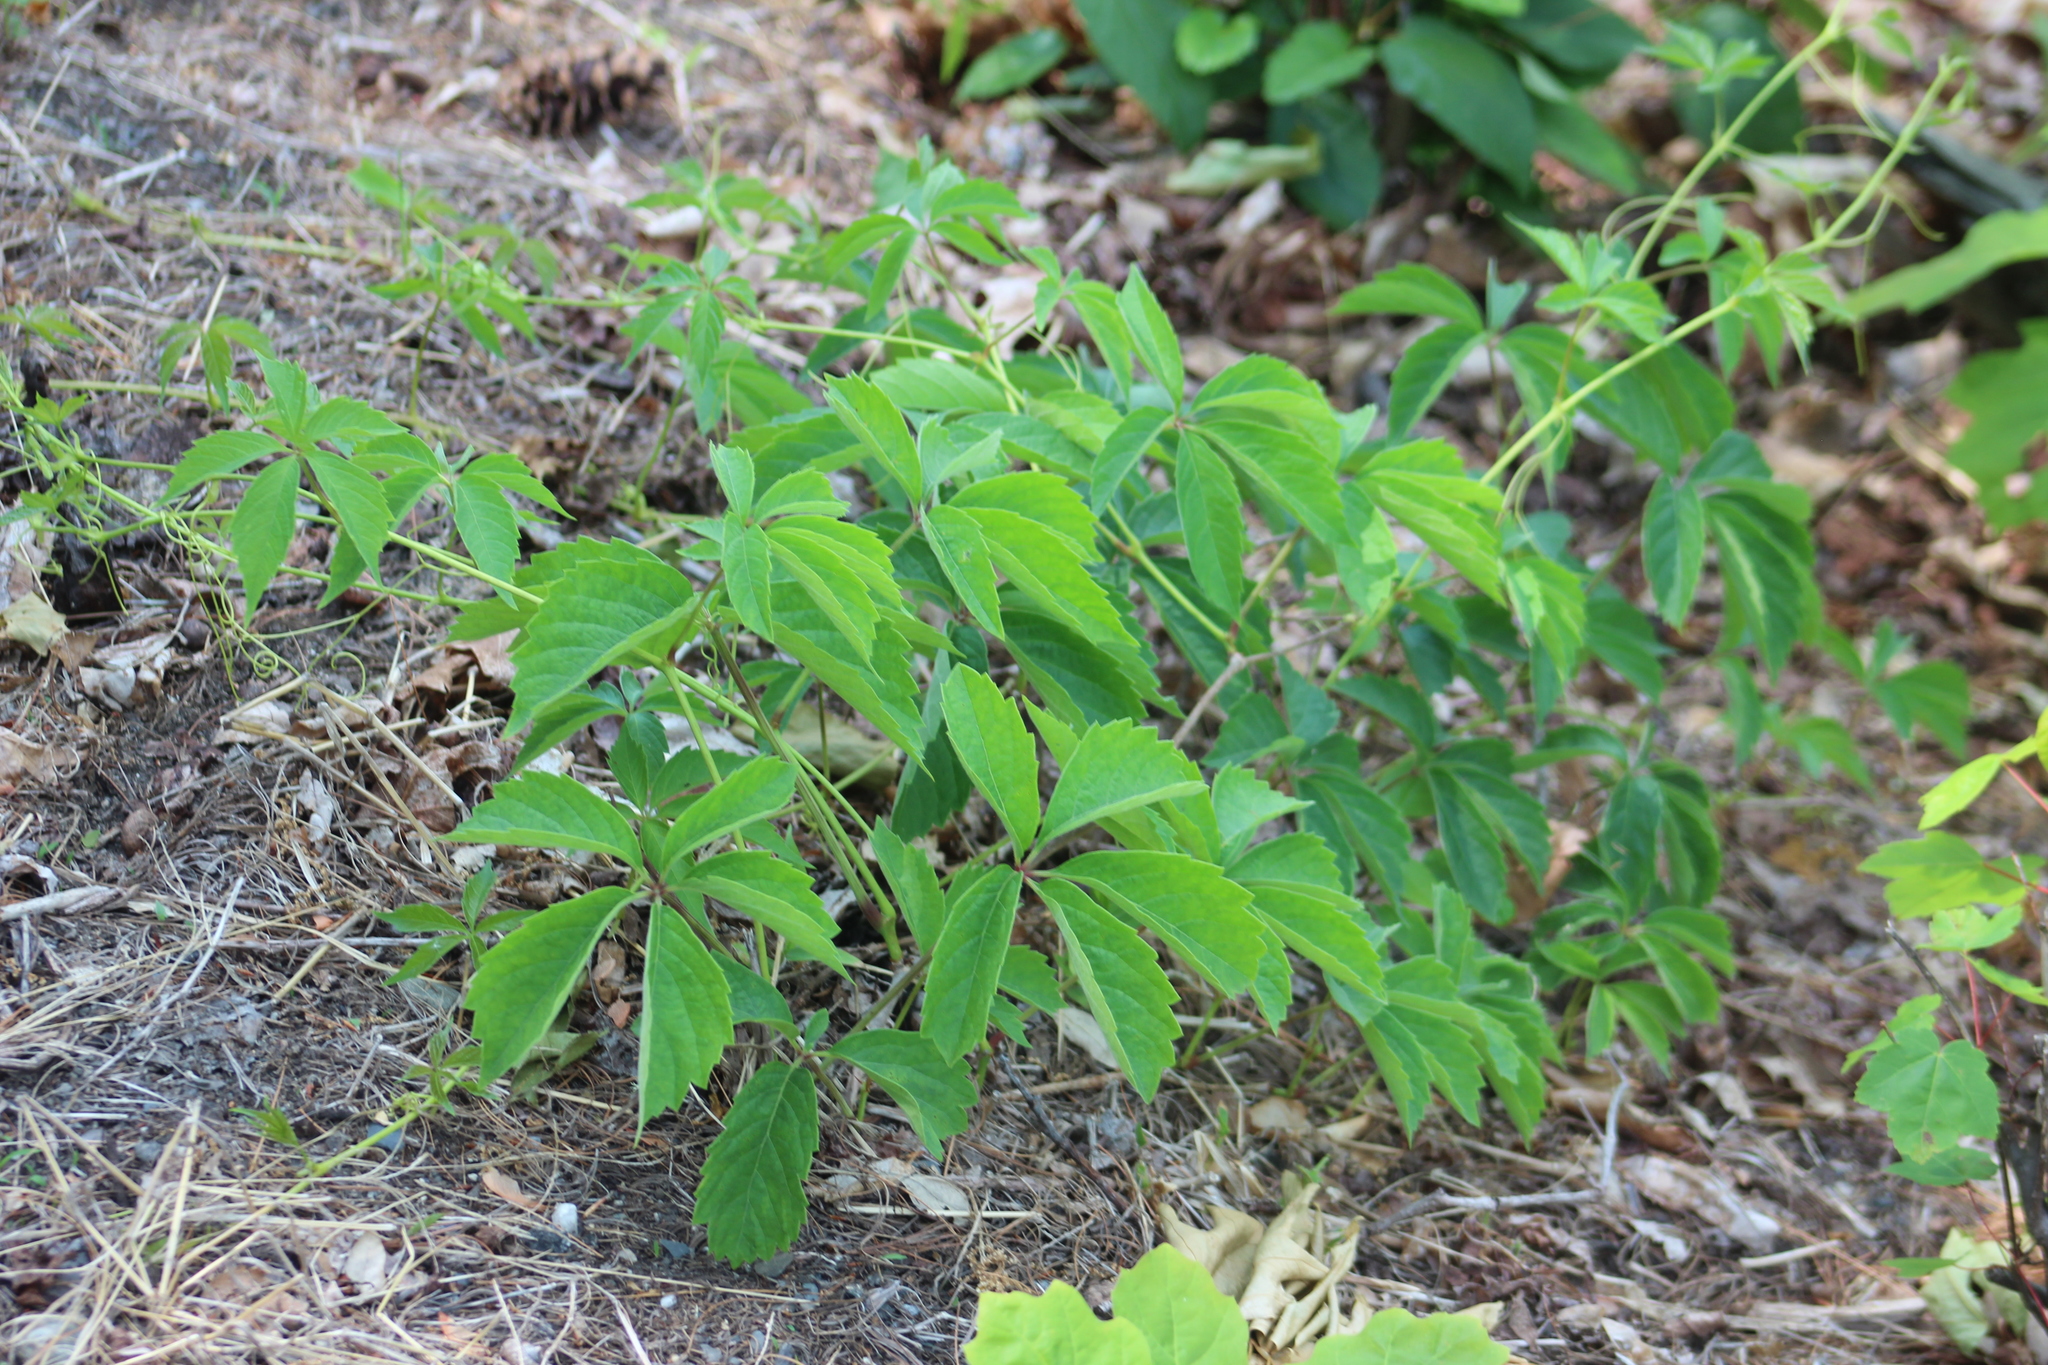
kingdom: Plantae
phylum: Tracheophyta
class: Magnoliopsida
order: Vitales
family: Vitaceae
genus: Parthenocissus
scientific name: Parthenocissus quinquefolia
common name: Virginia-creeper
